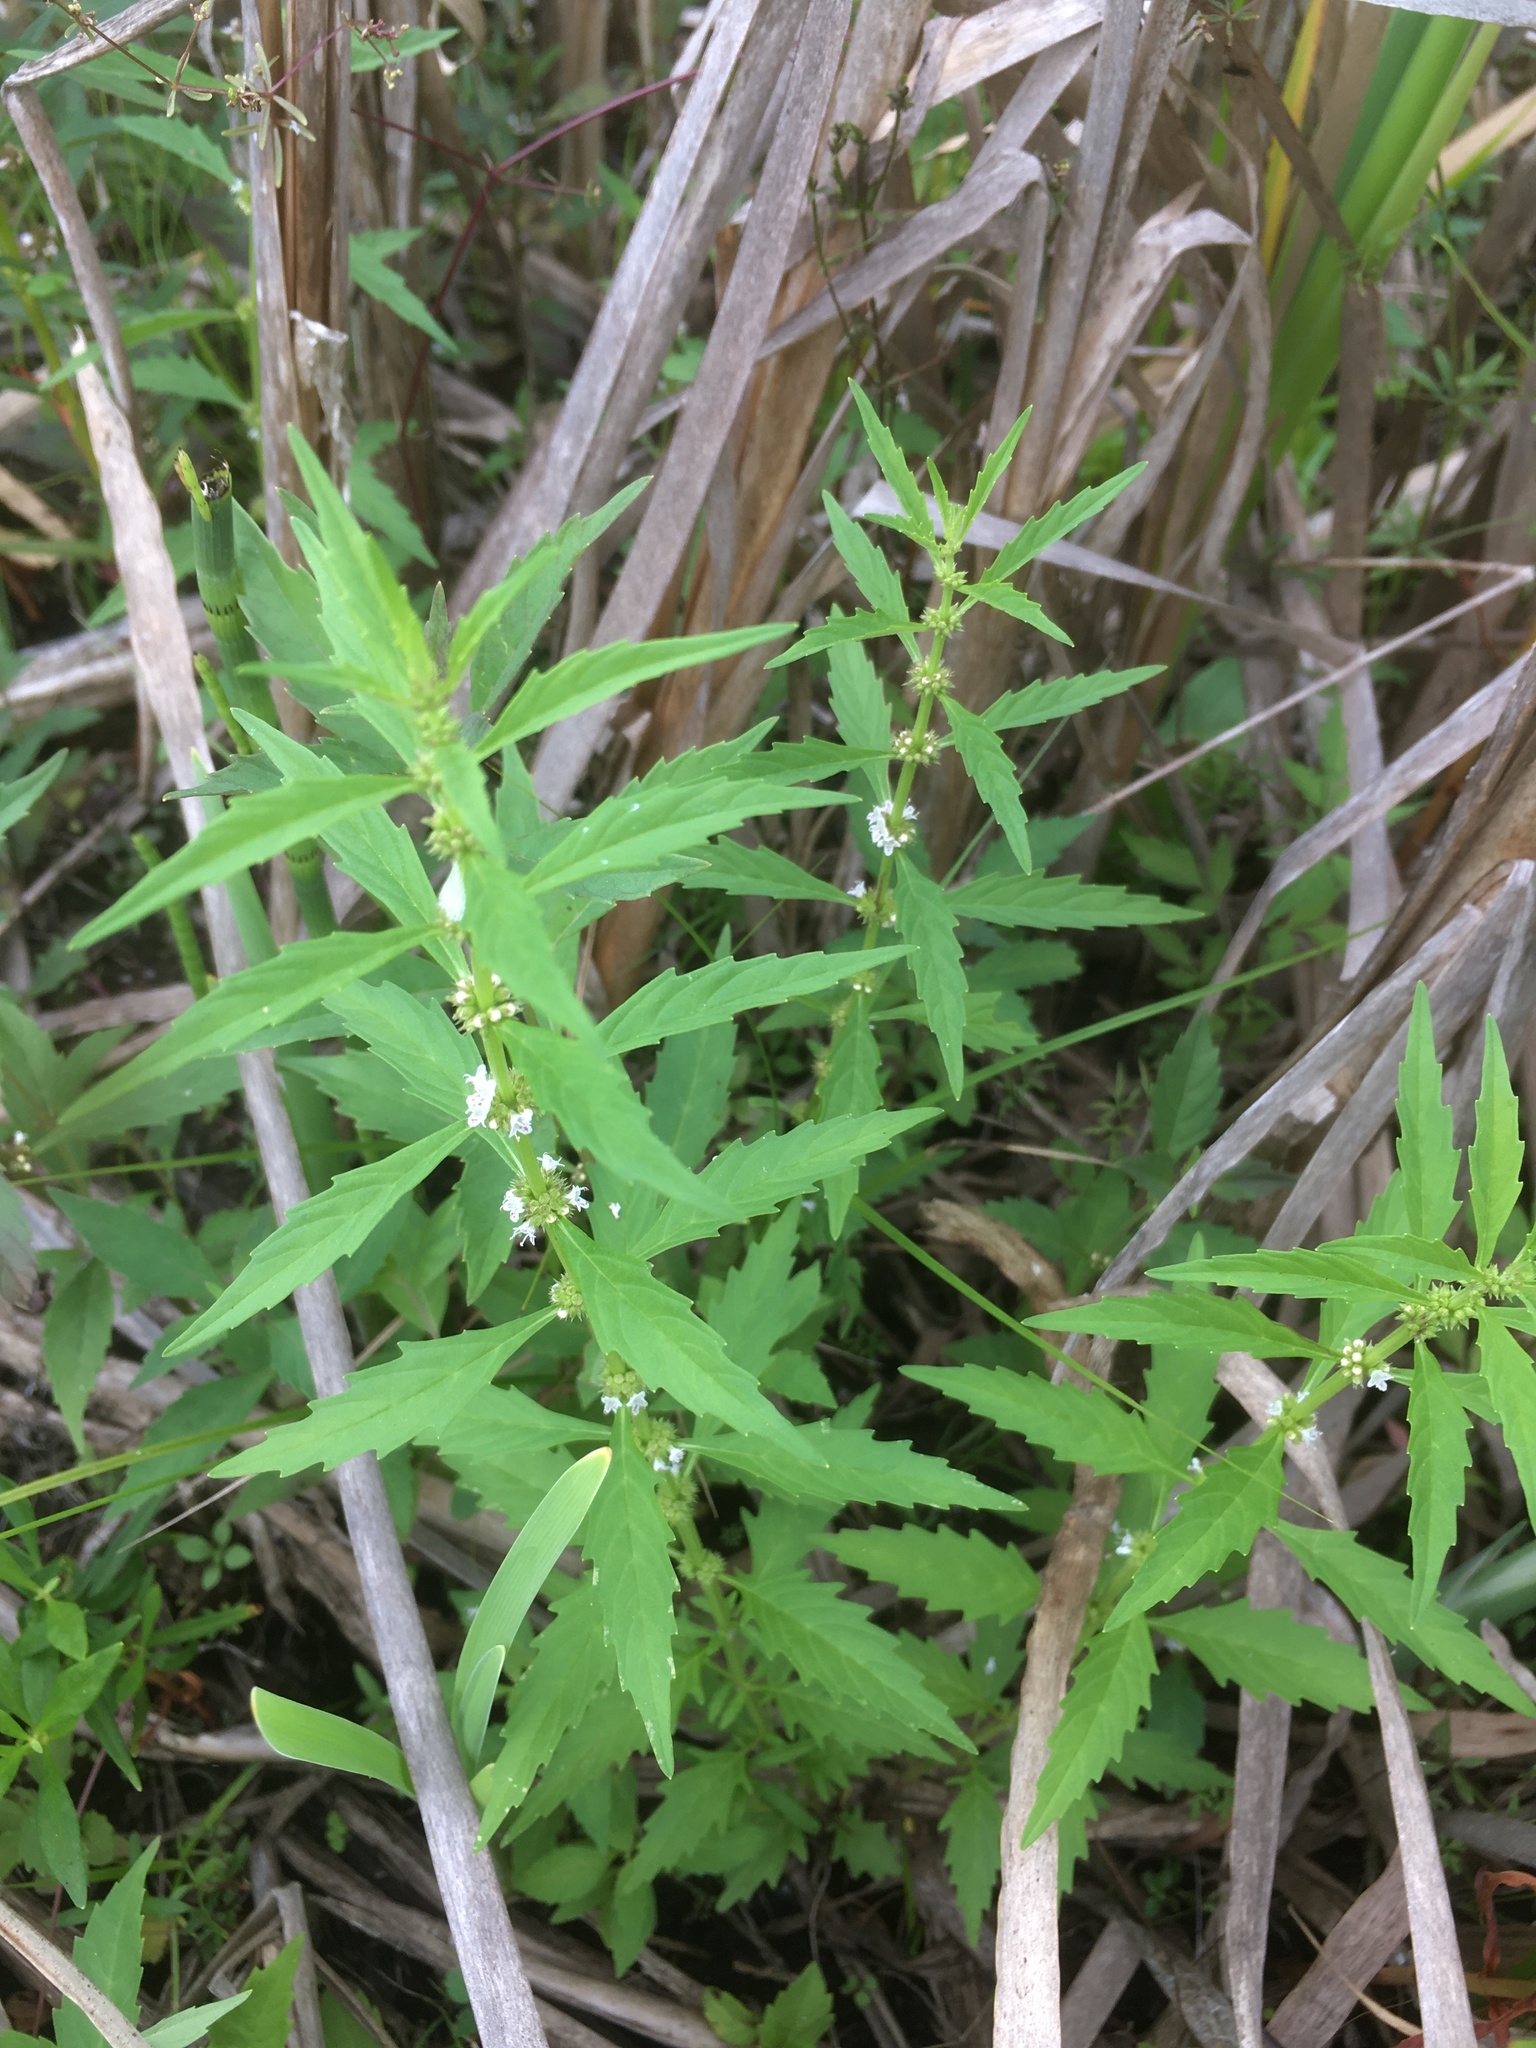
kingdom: Plantae
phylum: Tracheophyta
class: Magnoliopsida
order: Lamiales
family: Lamiaceae
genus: Lycopus
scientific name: Lycopus americanus
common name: American bugleweed
